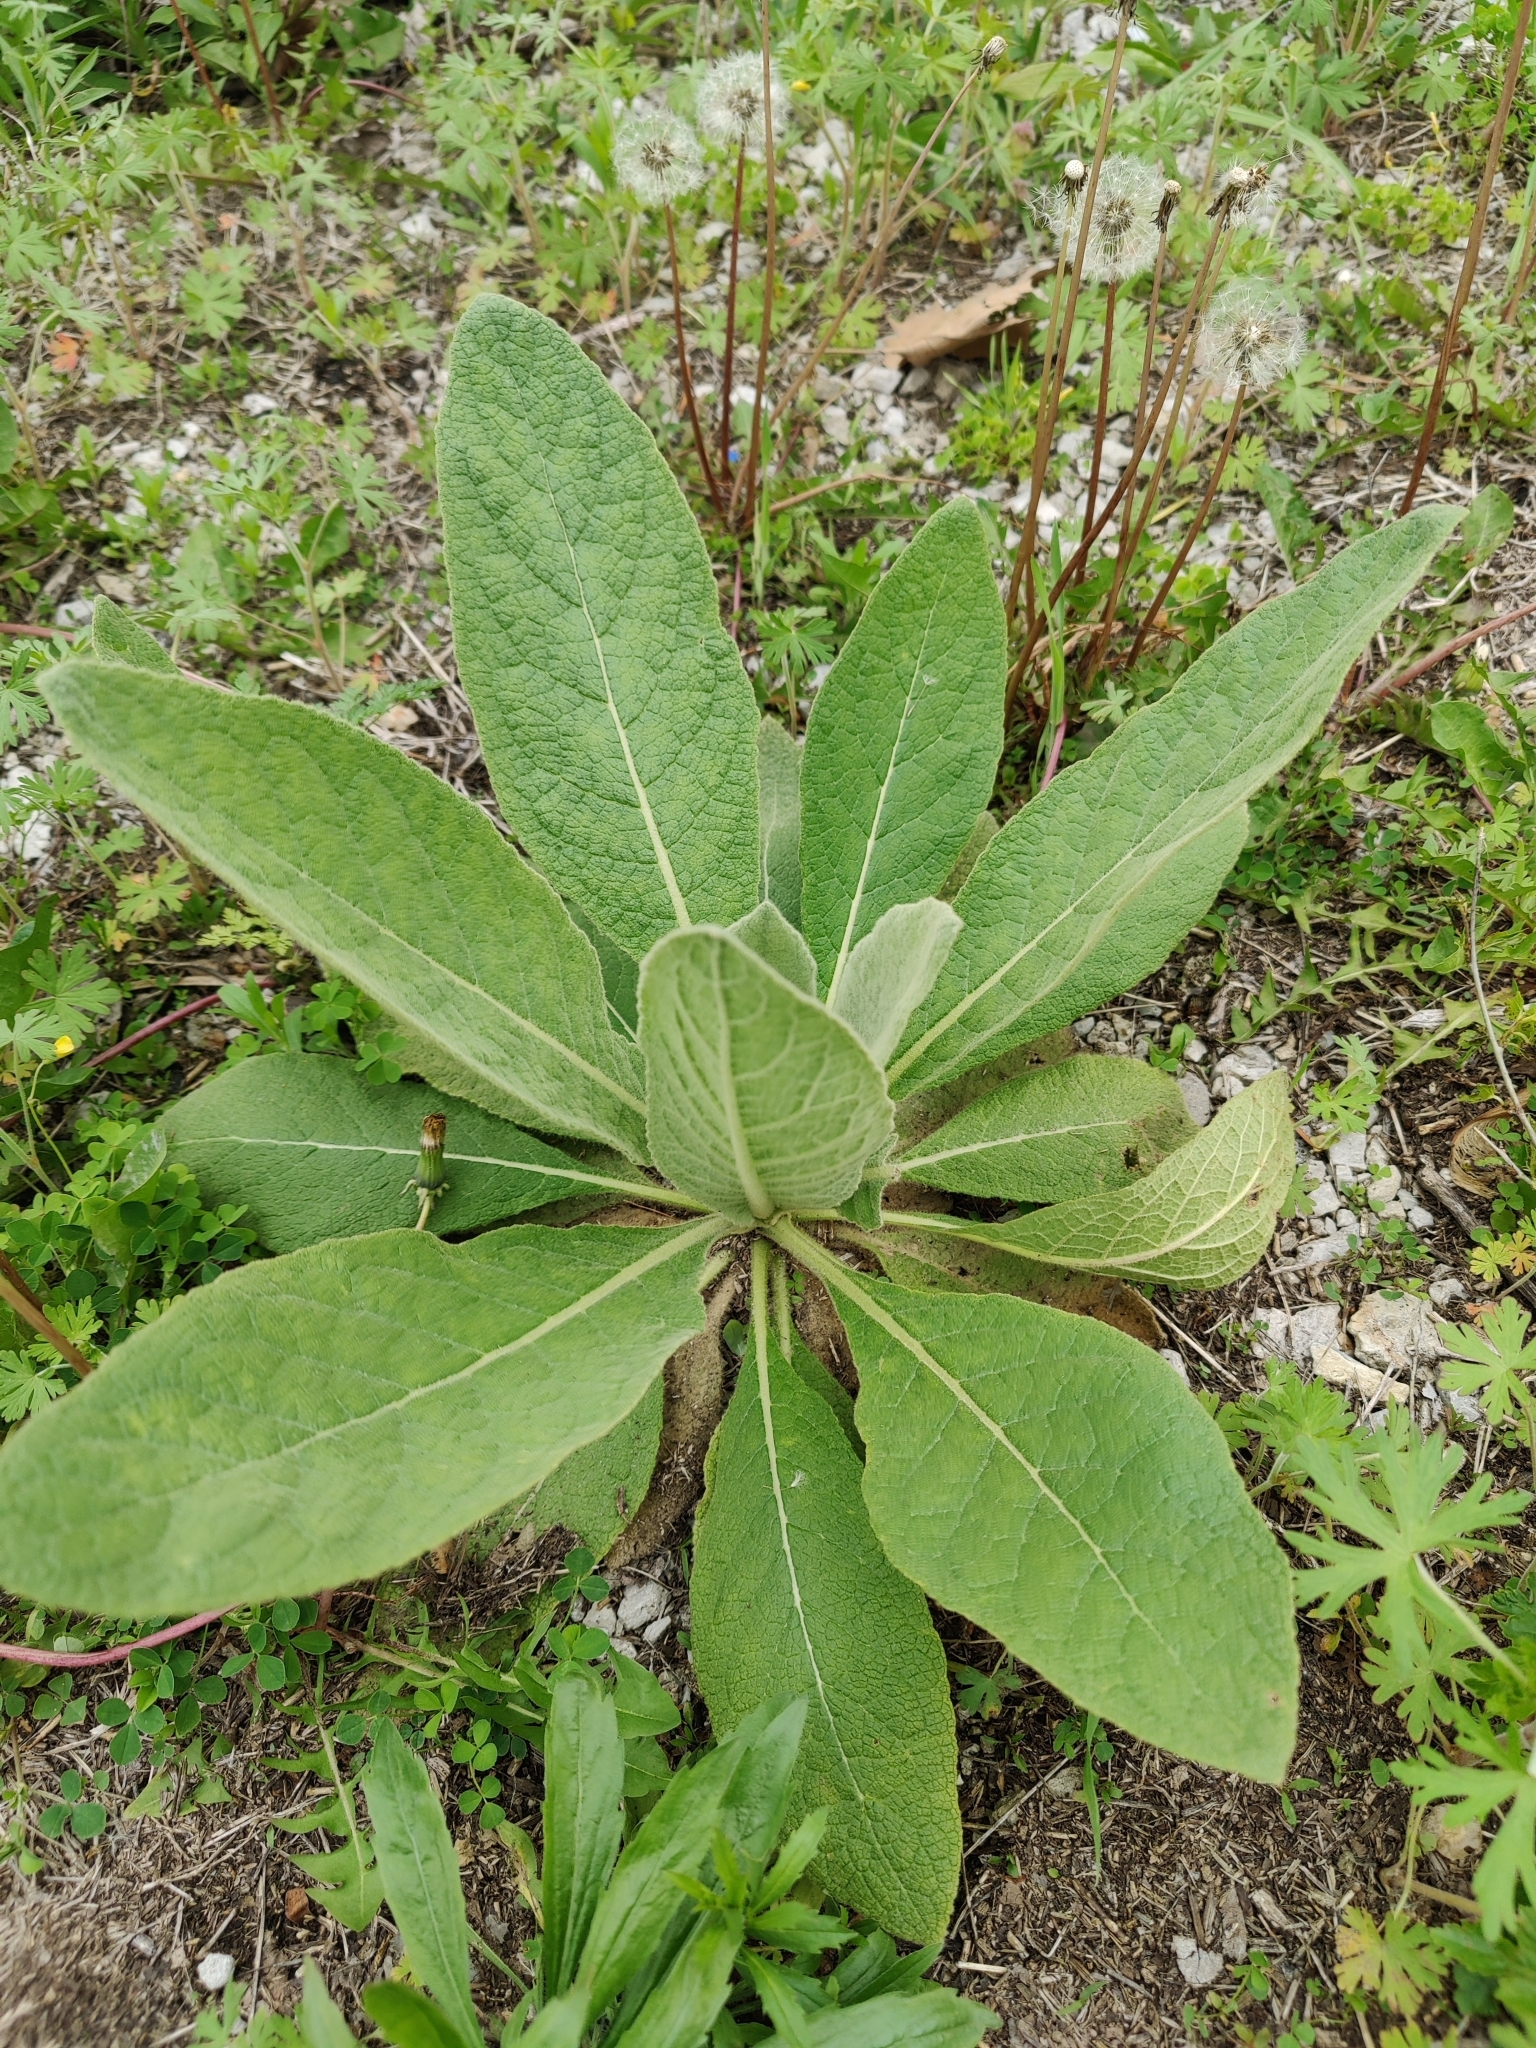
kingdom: Plantae
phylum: Tracheophyta
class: Magnoliopsida
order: Lamiales
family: Scrophulariaceae
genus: Verbascum
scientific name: Verbascum thapsus
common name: Common mullein
